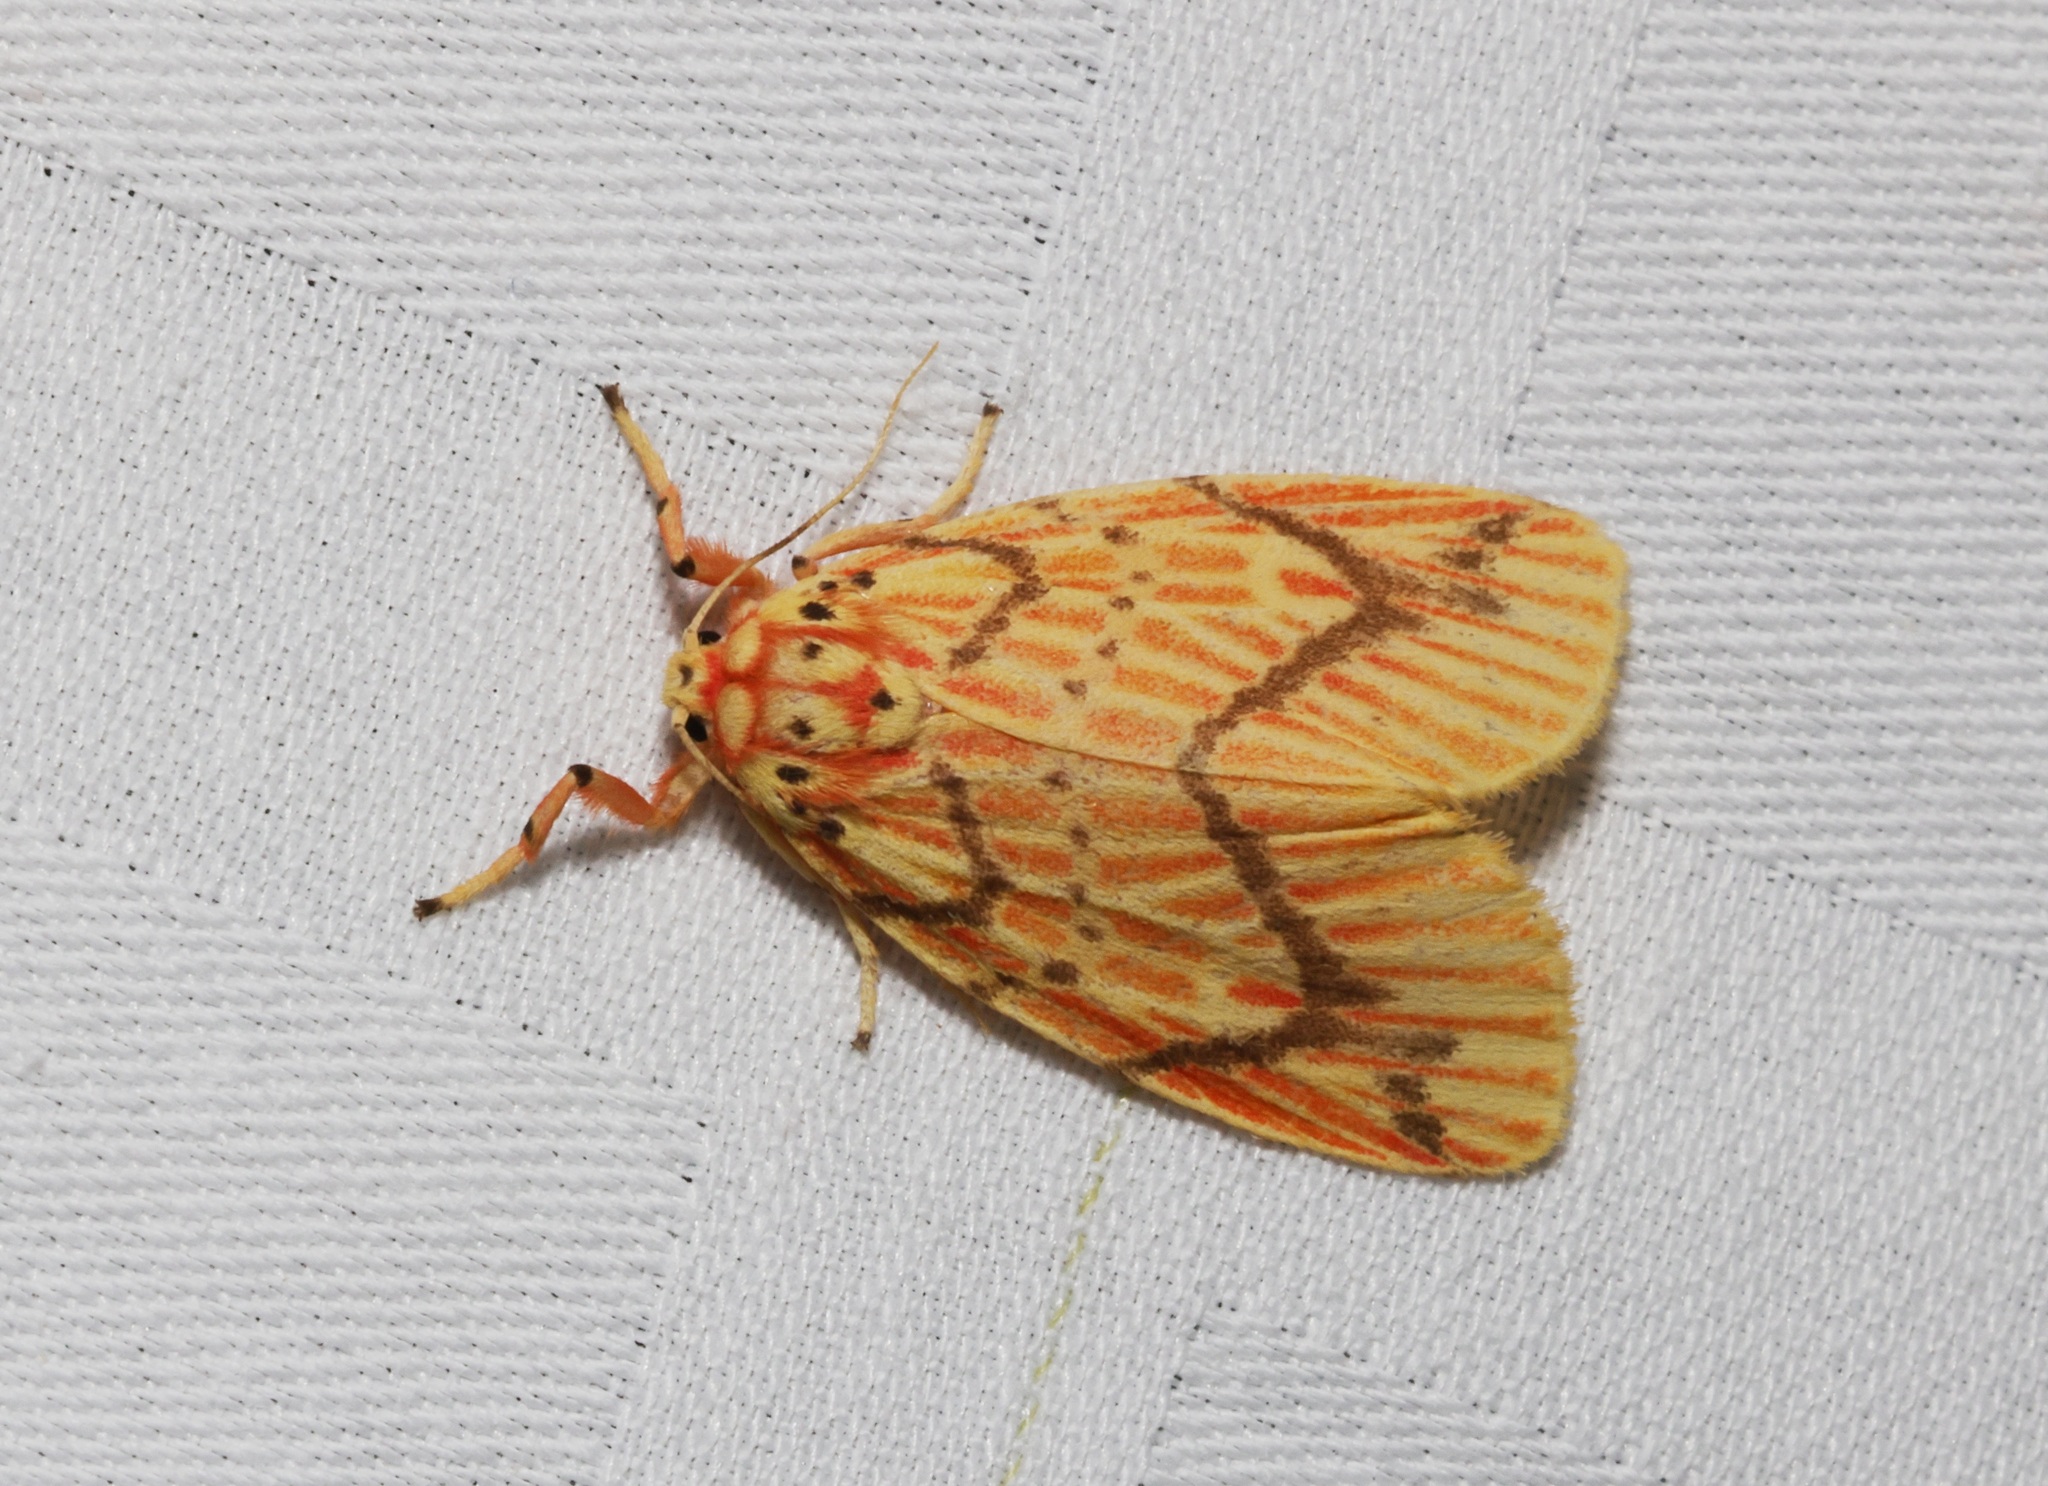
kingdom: Animalia
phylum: Arthropoda
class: Insecta
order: Lepidoptera
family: Erebidae
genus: Barsine
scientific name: Barsine striata
